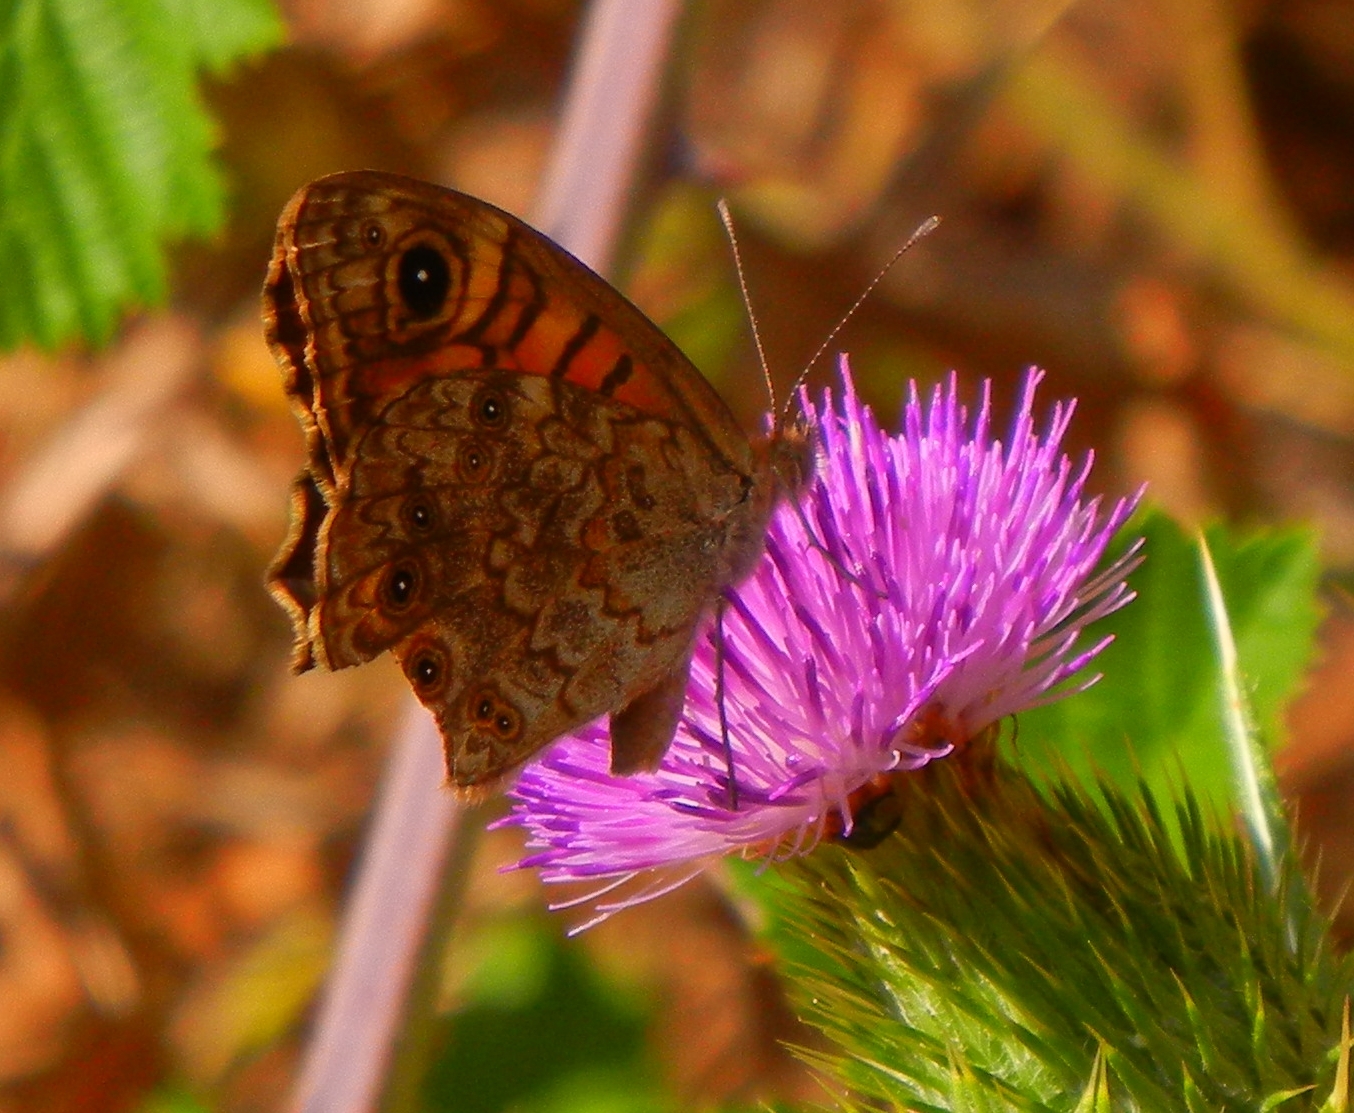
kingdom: Animalia
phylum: Arthropoda
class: Insecta
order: Lepidoptera
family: Nymphalidae
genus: Pararge
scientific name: Pararge Lasiommata megera
